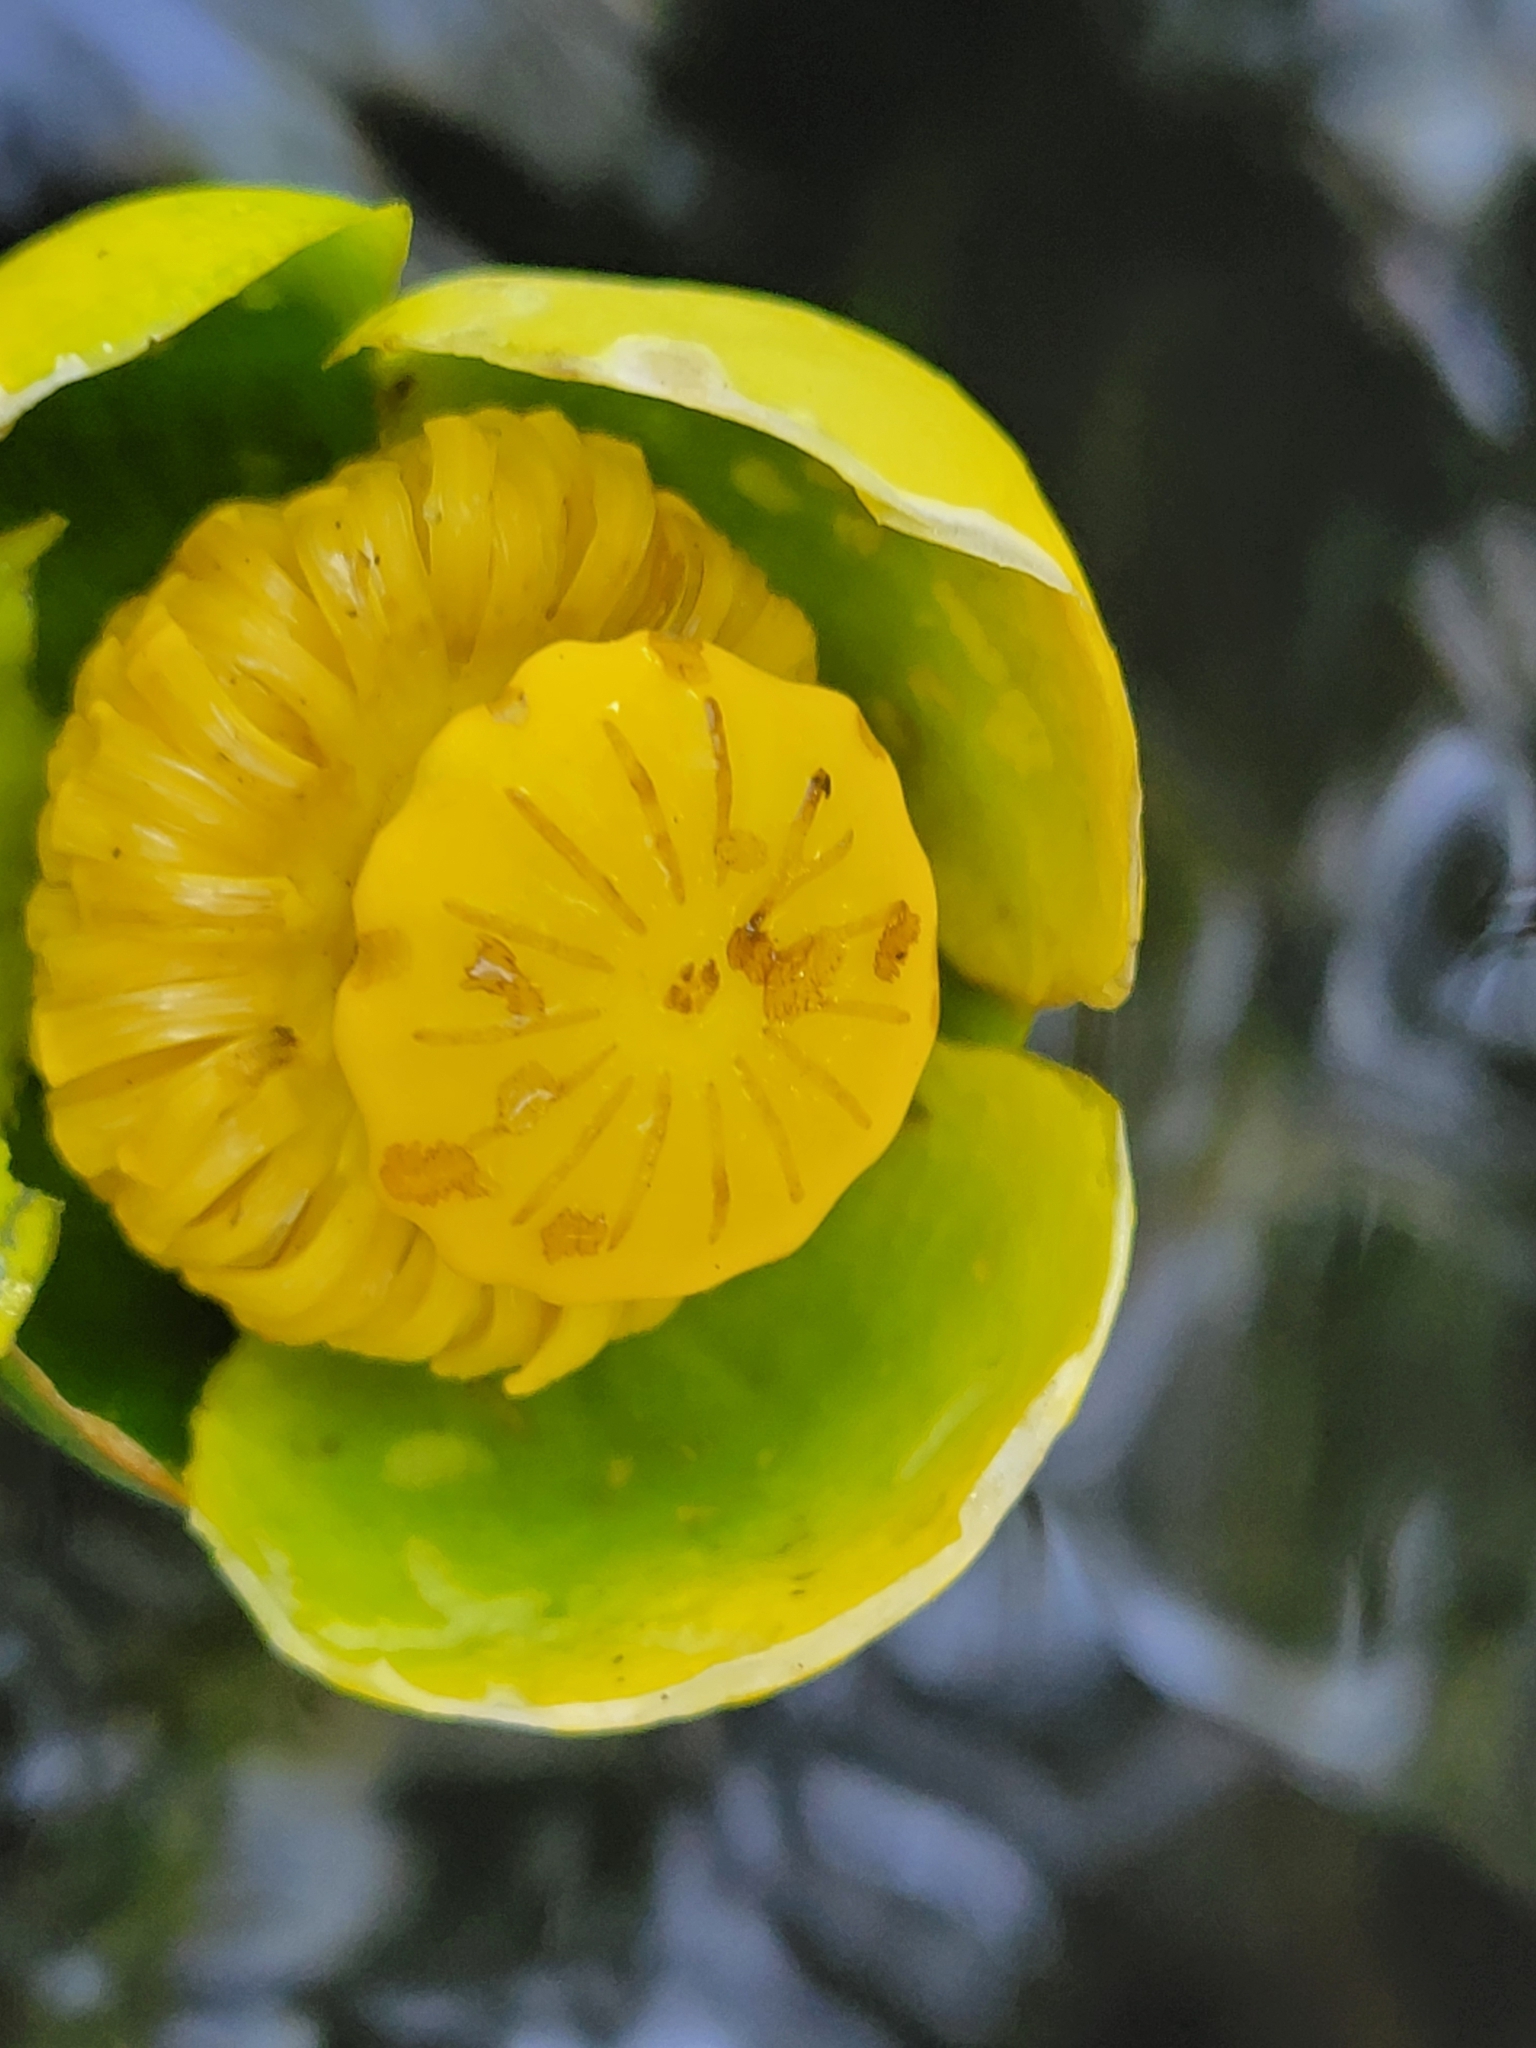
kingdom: Plantae
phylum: Tracheophyta
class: Magnoliopsida
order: Nymphaeales
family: Nymphaeaceae
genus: Nuphar
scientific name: Nuphar advena
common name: Spatter-dock
